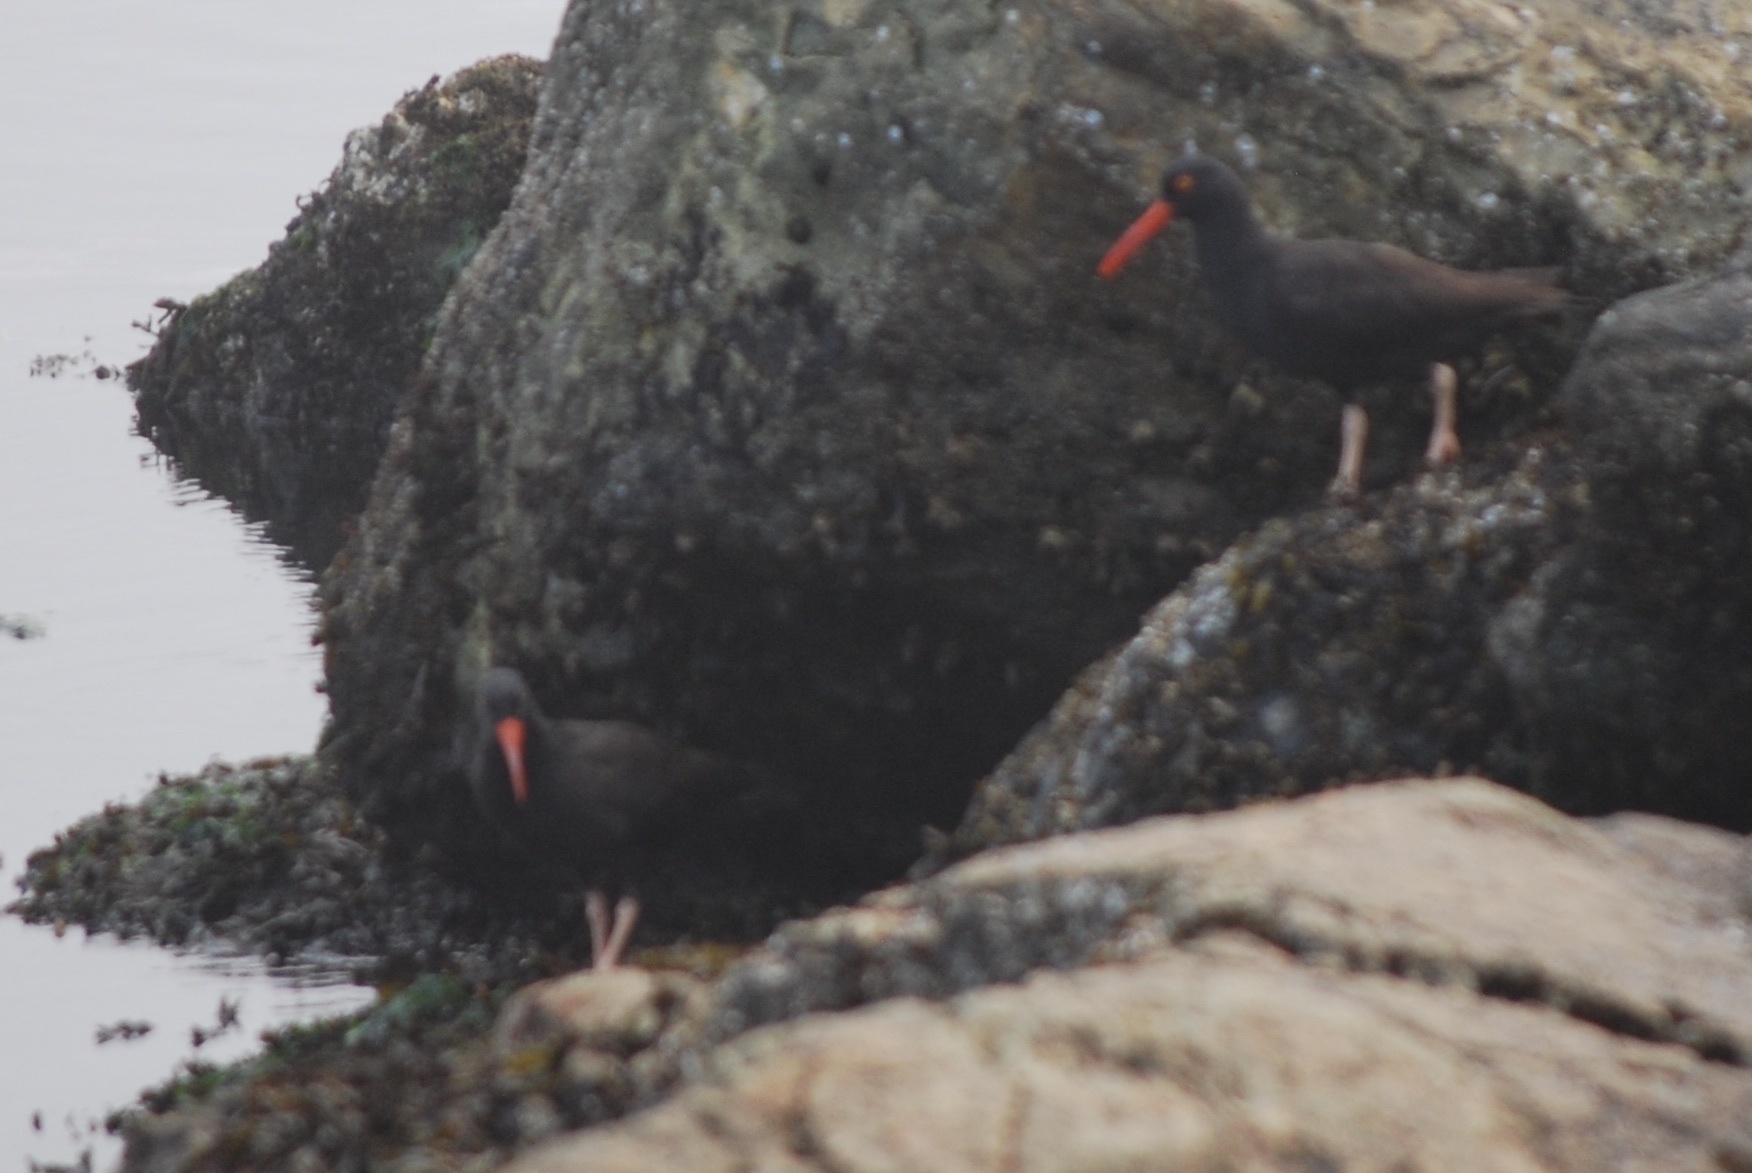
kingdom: Animalia
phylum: Chordata
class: Aves
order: Charadriiformes
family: Haematopodidae
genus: Haematopus
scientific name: Haematopus bachmani
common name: Black oystercatcher
